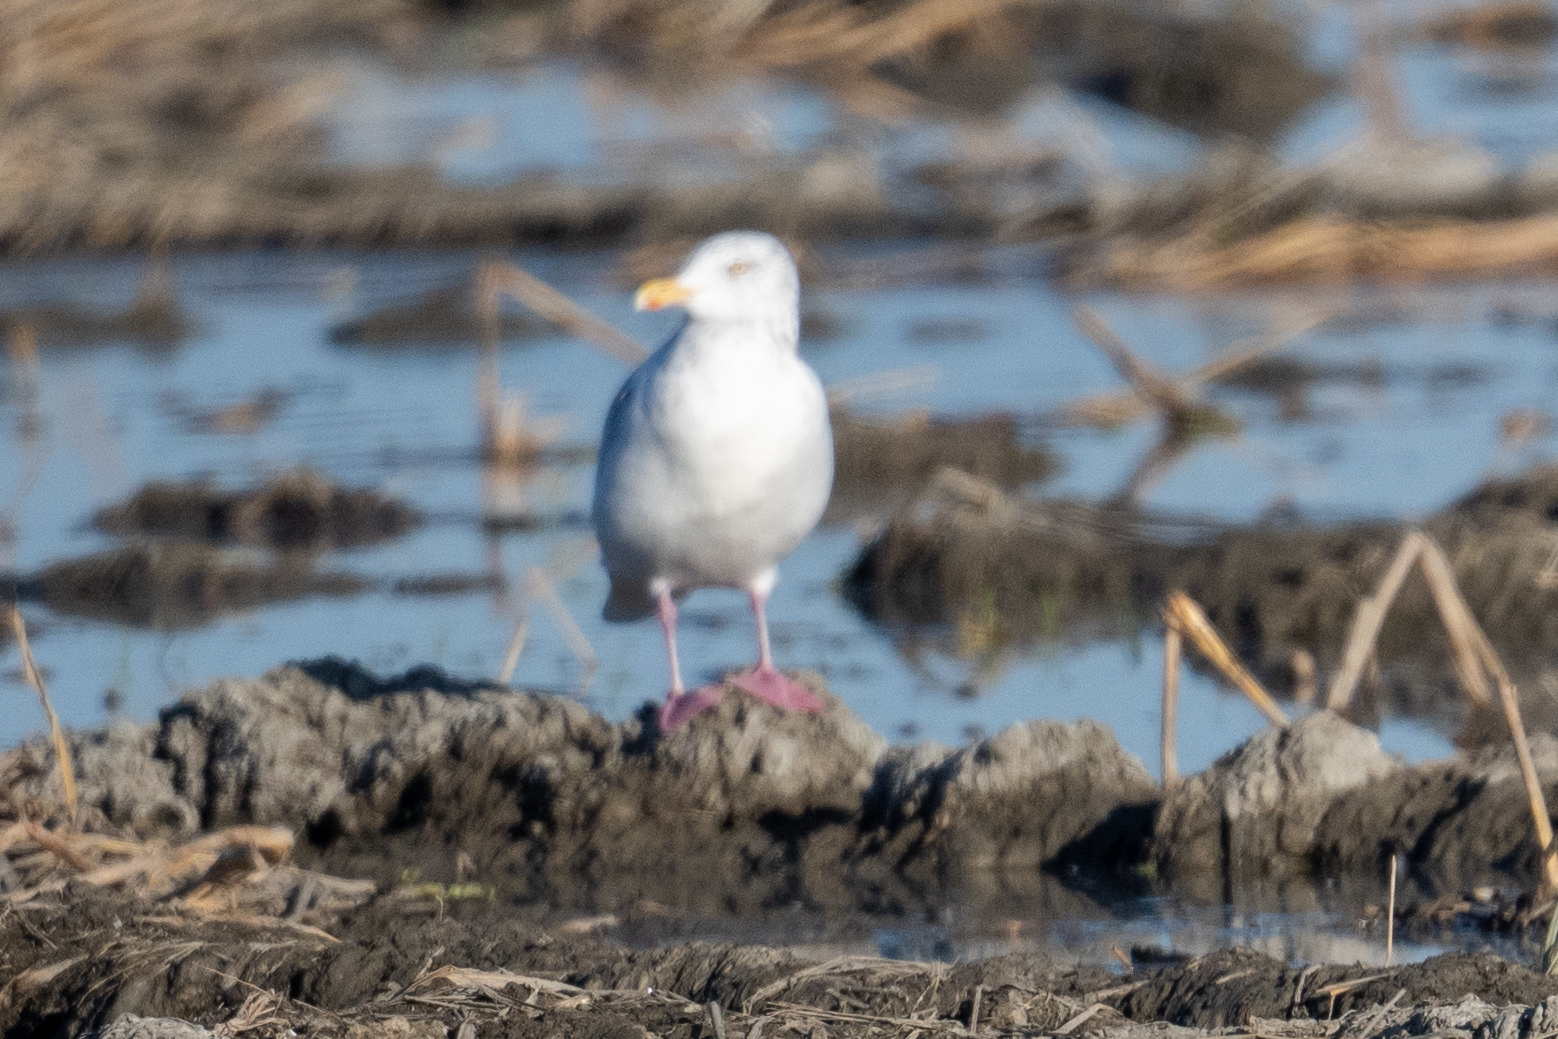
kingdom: Animalia
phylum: Chordata
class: Aves
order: Charadriiformes
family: Laridae
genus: Larus
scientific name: Larus argentatus
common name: Herring gull
